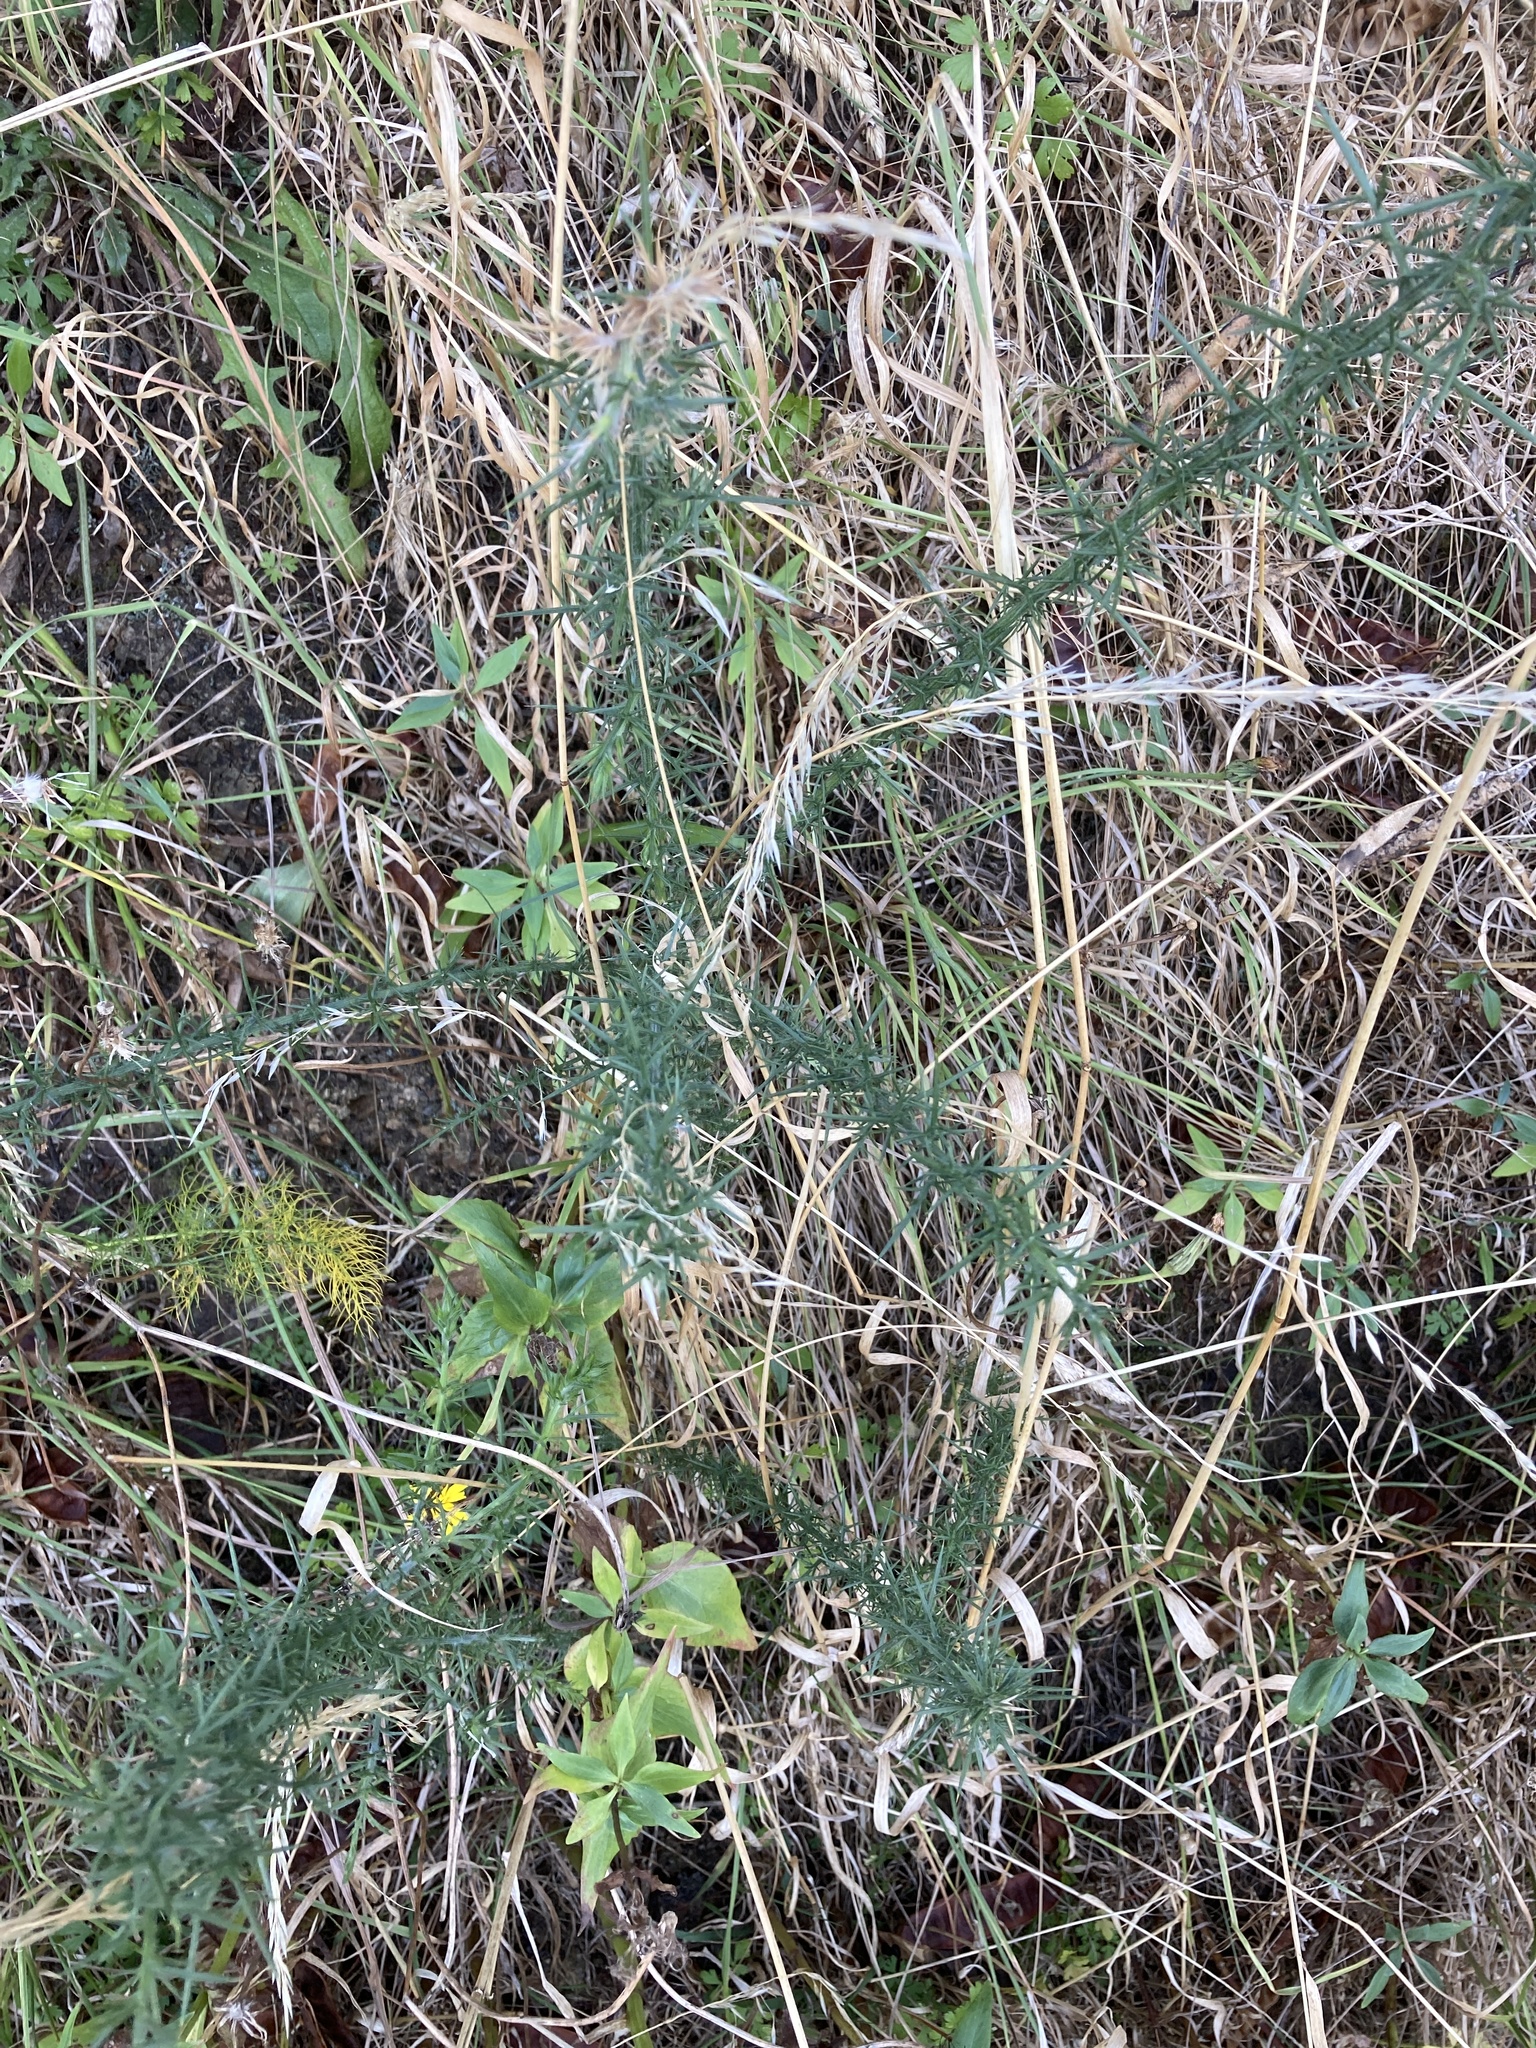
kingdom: Plantae
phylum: Tracheophyta
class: Magnoliopsida
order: Fabales
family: Fabaceae
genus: Ulex
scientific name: Ulex europaeus
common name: Common gorse
